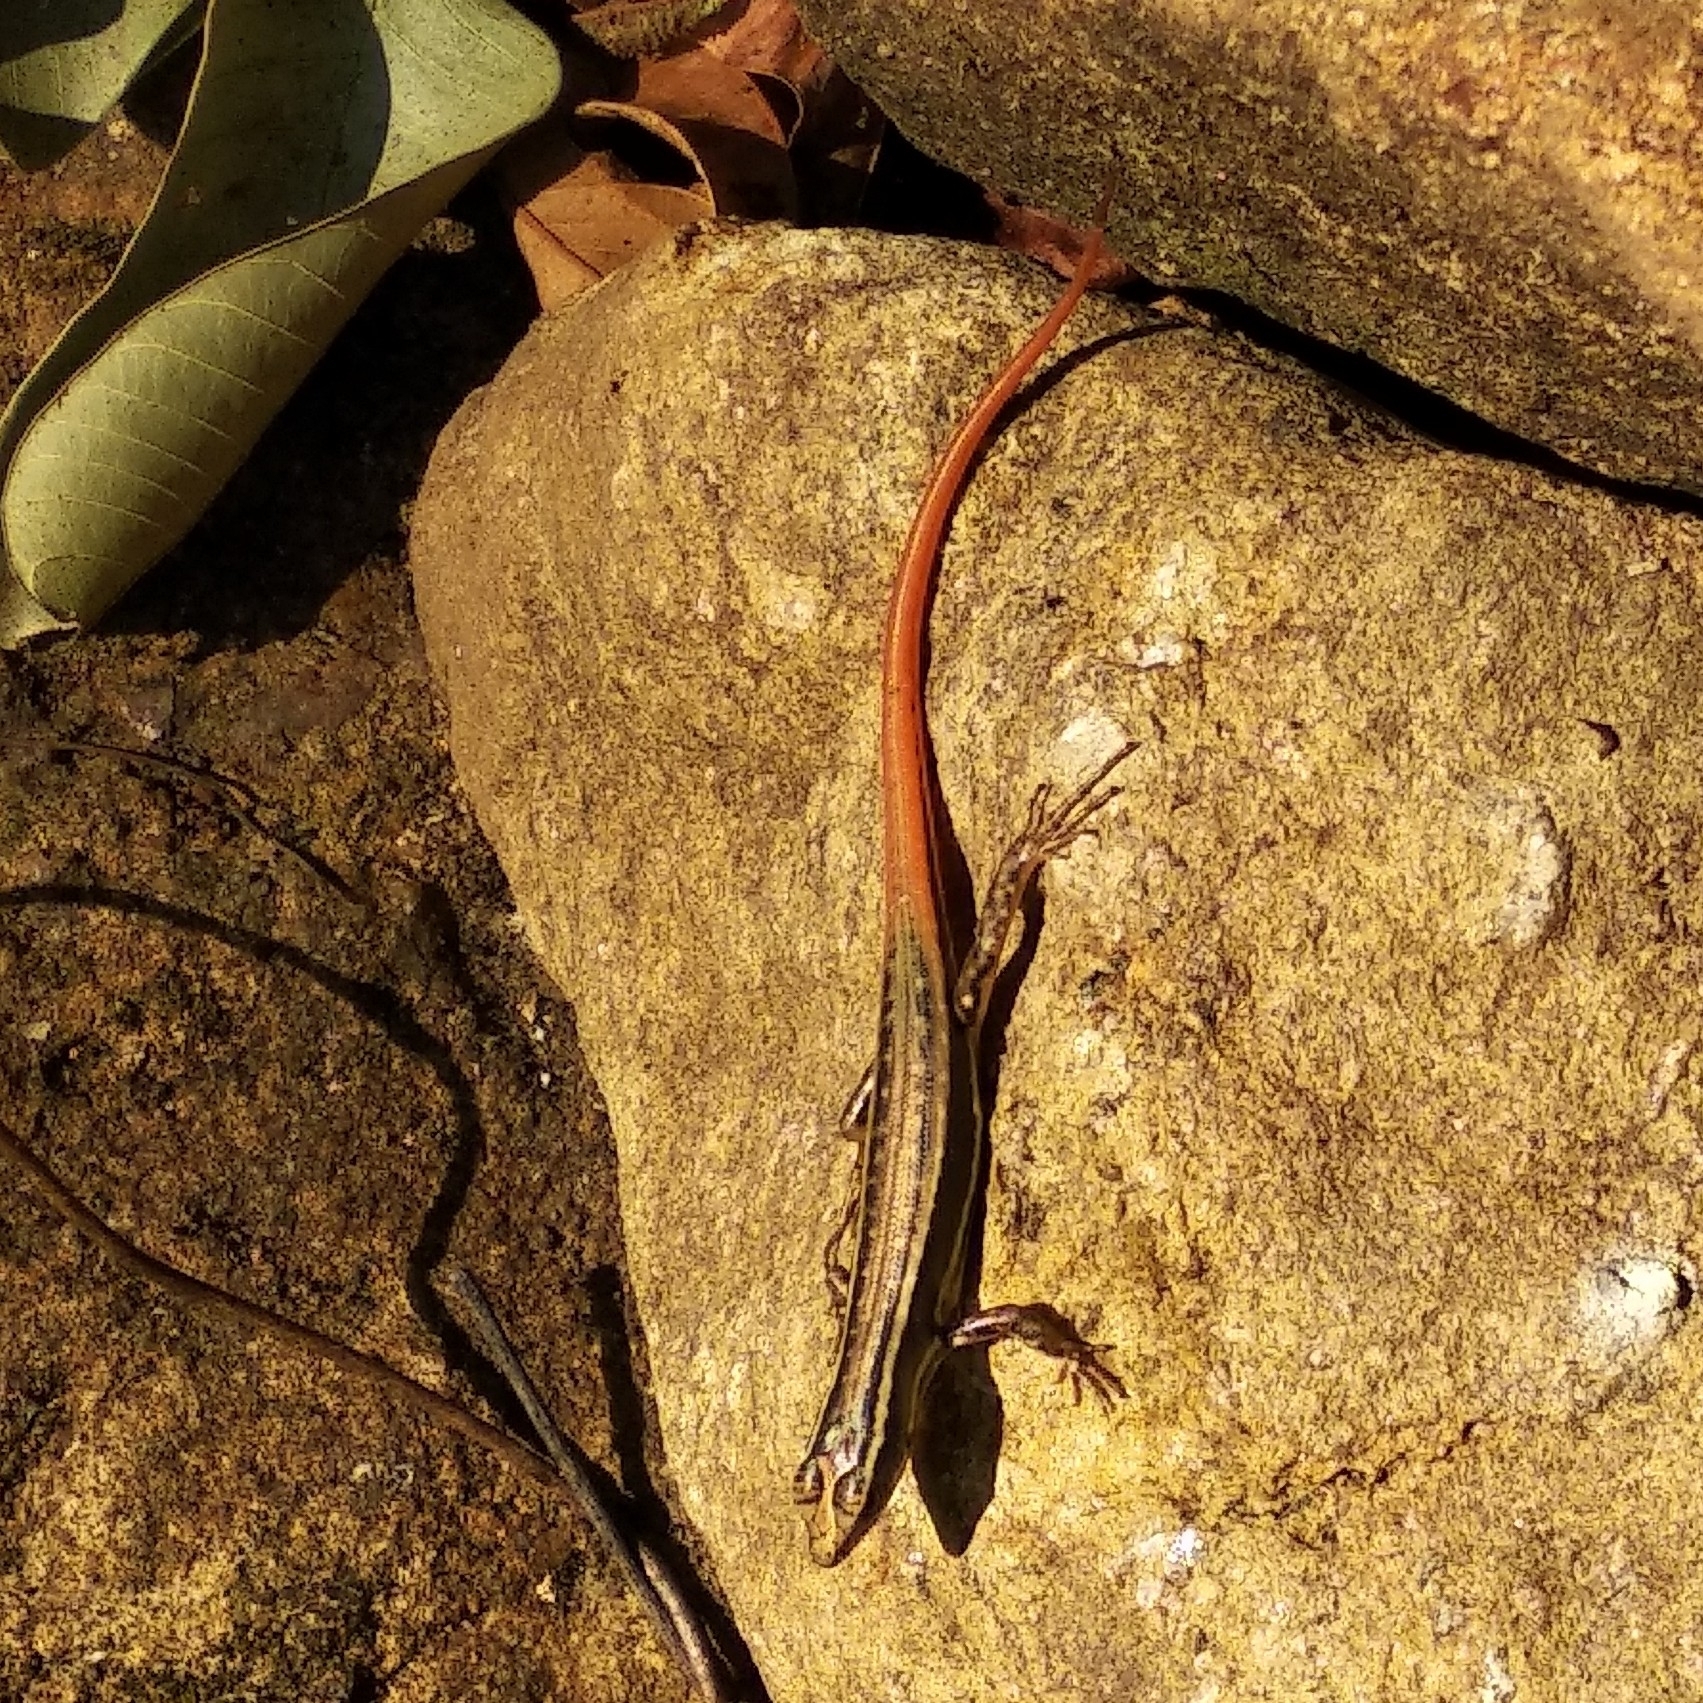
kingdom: Animalia
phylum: Chordata
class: Squamata
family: Scincidae
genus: Sphenomorphus
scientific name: Sphenomorphus dussumieri
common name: Dussumier's forest skink
